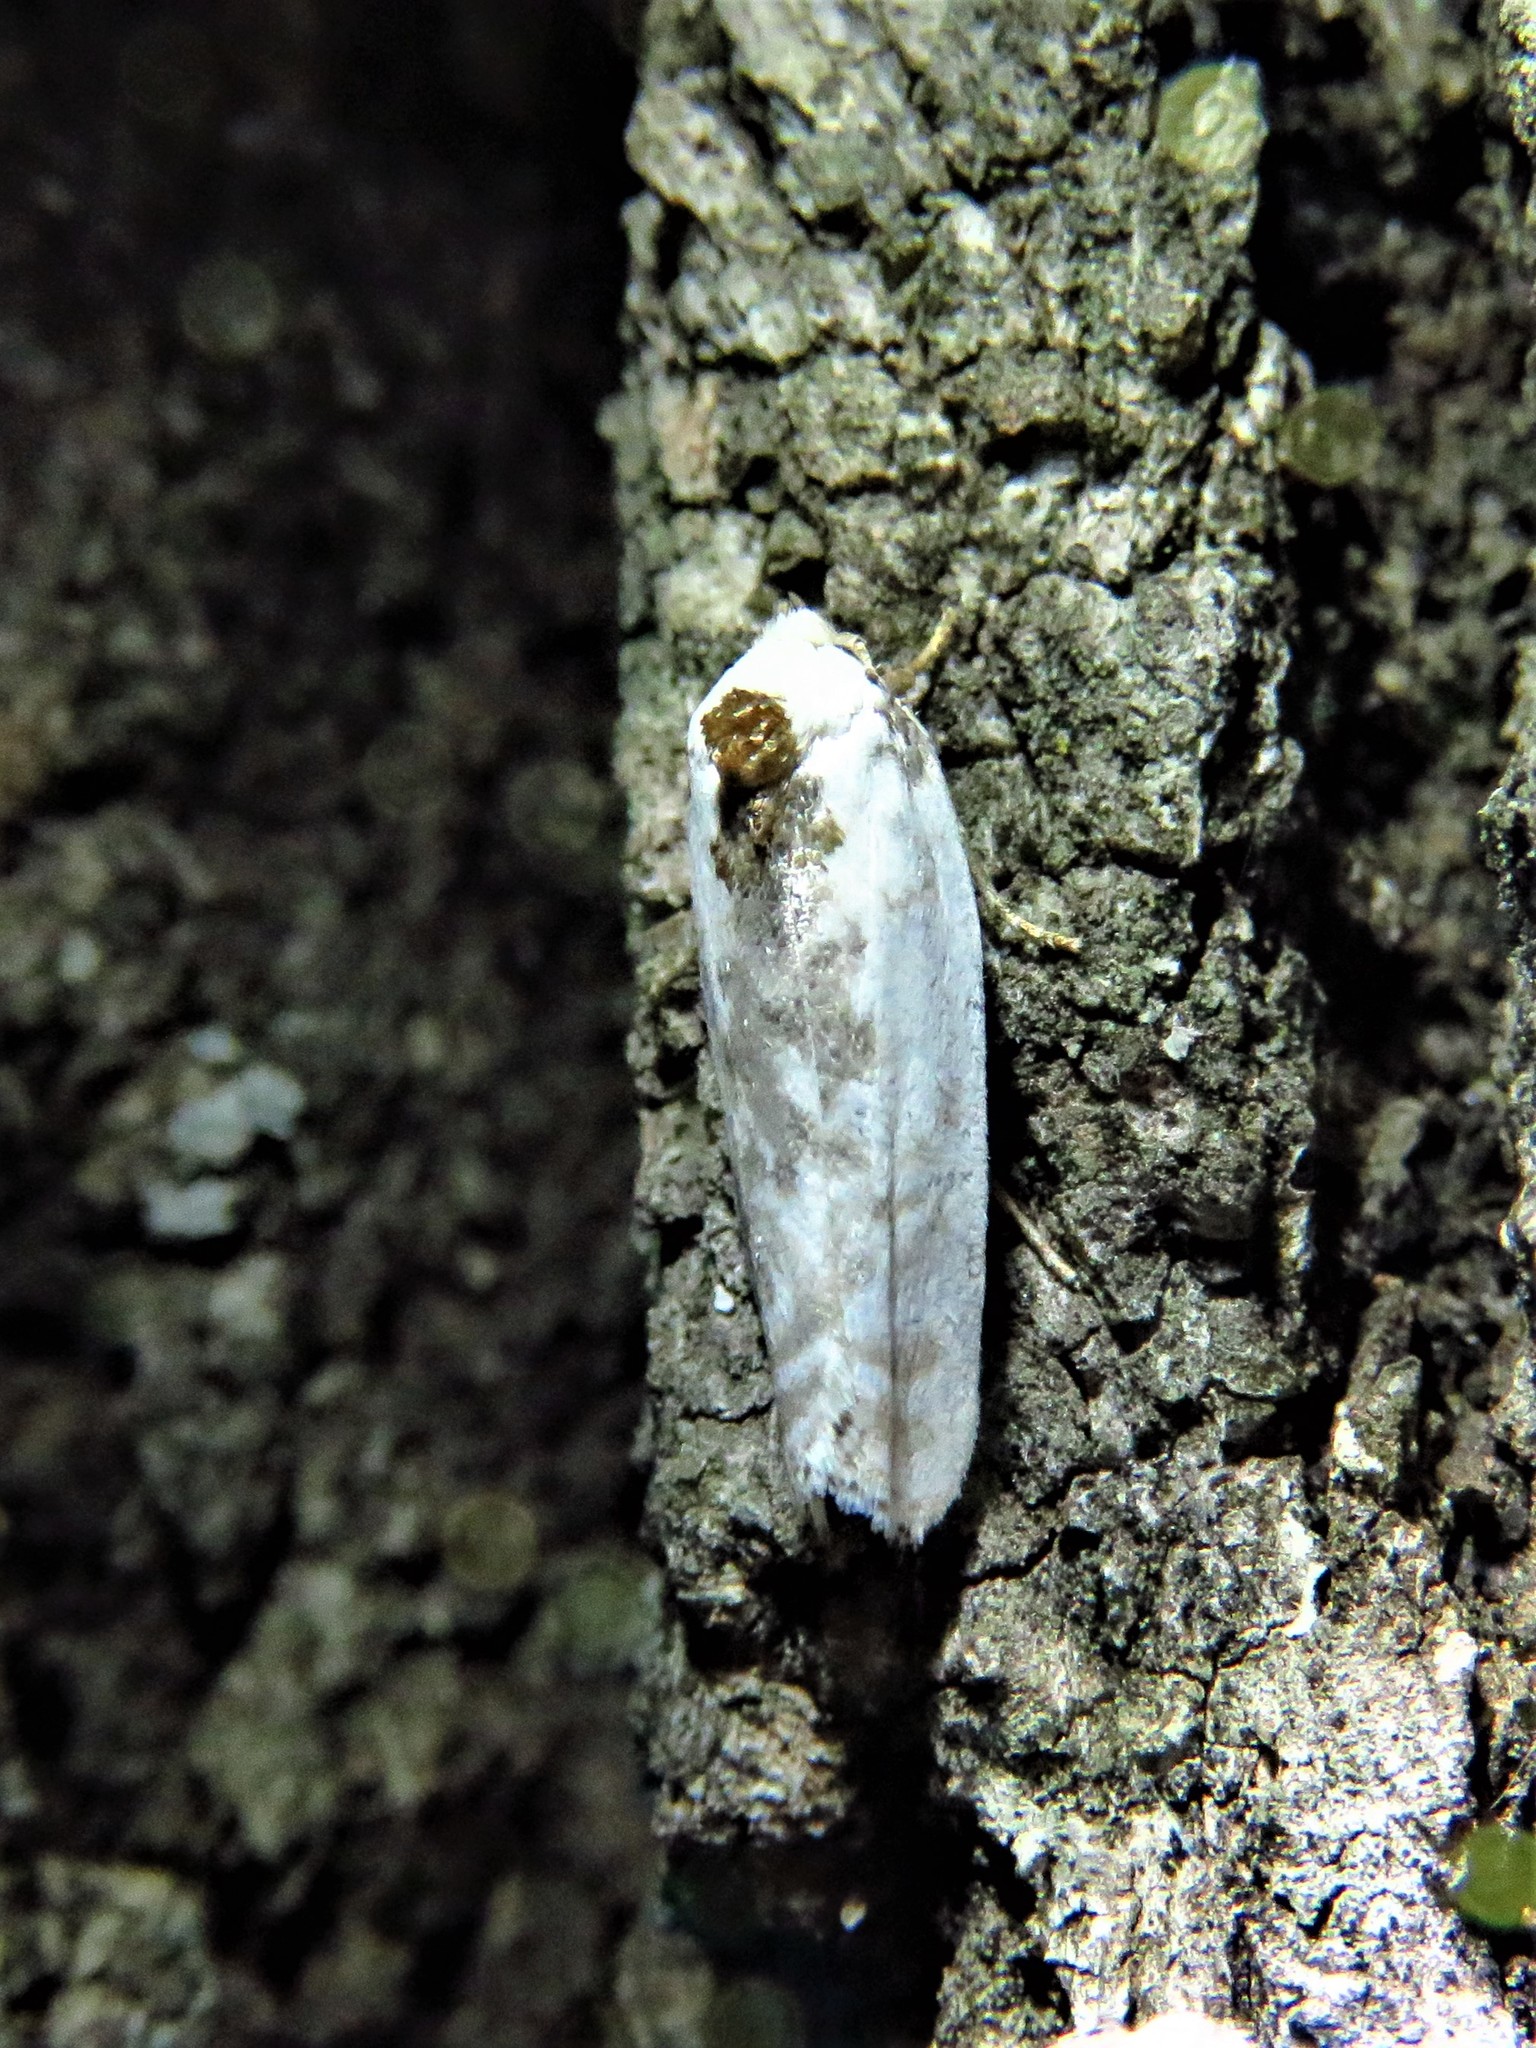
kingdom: Animalia
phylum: Arthropoda
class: Insecta
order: Lepidoptera
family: Depressariidae
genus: Antaeotricha
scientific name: Antaeotricha schlaegeri
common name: Schlaeger's fruitworm moth
